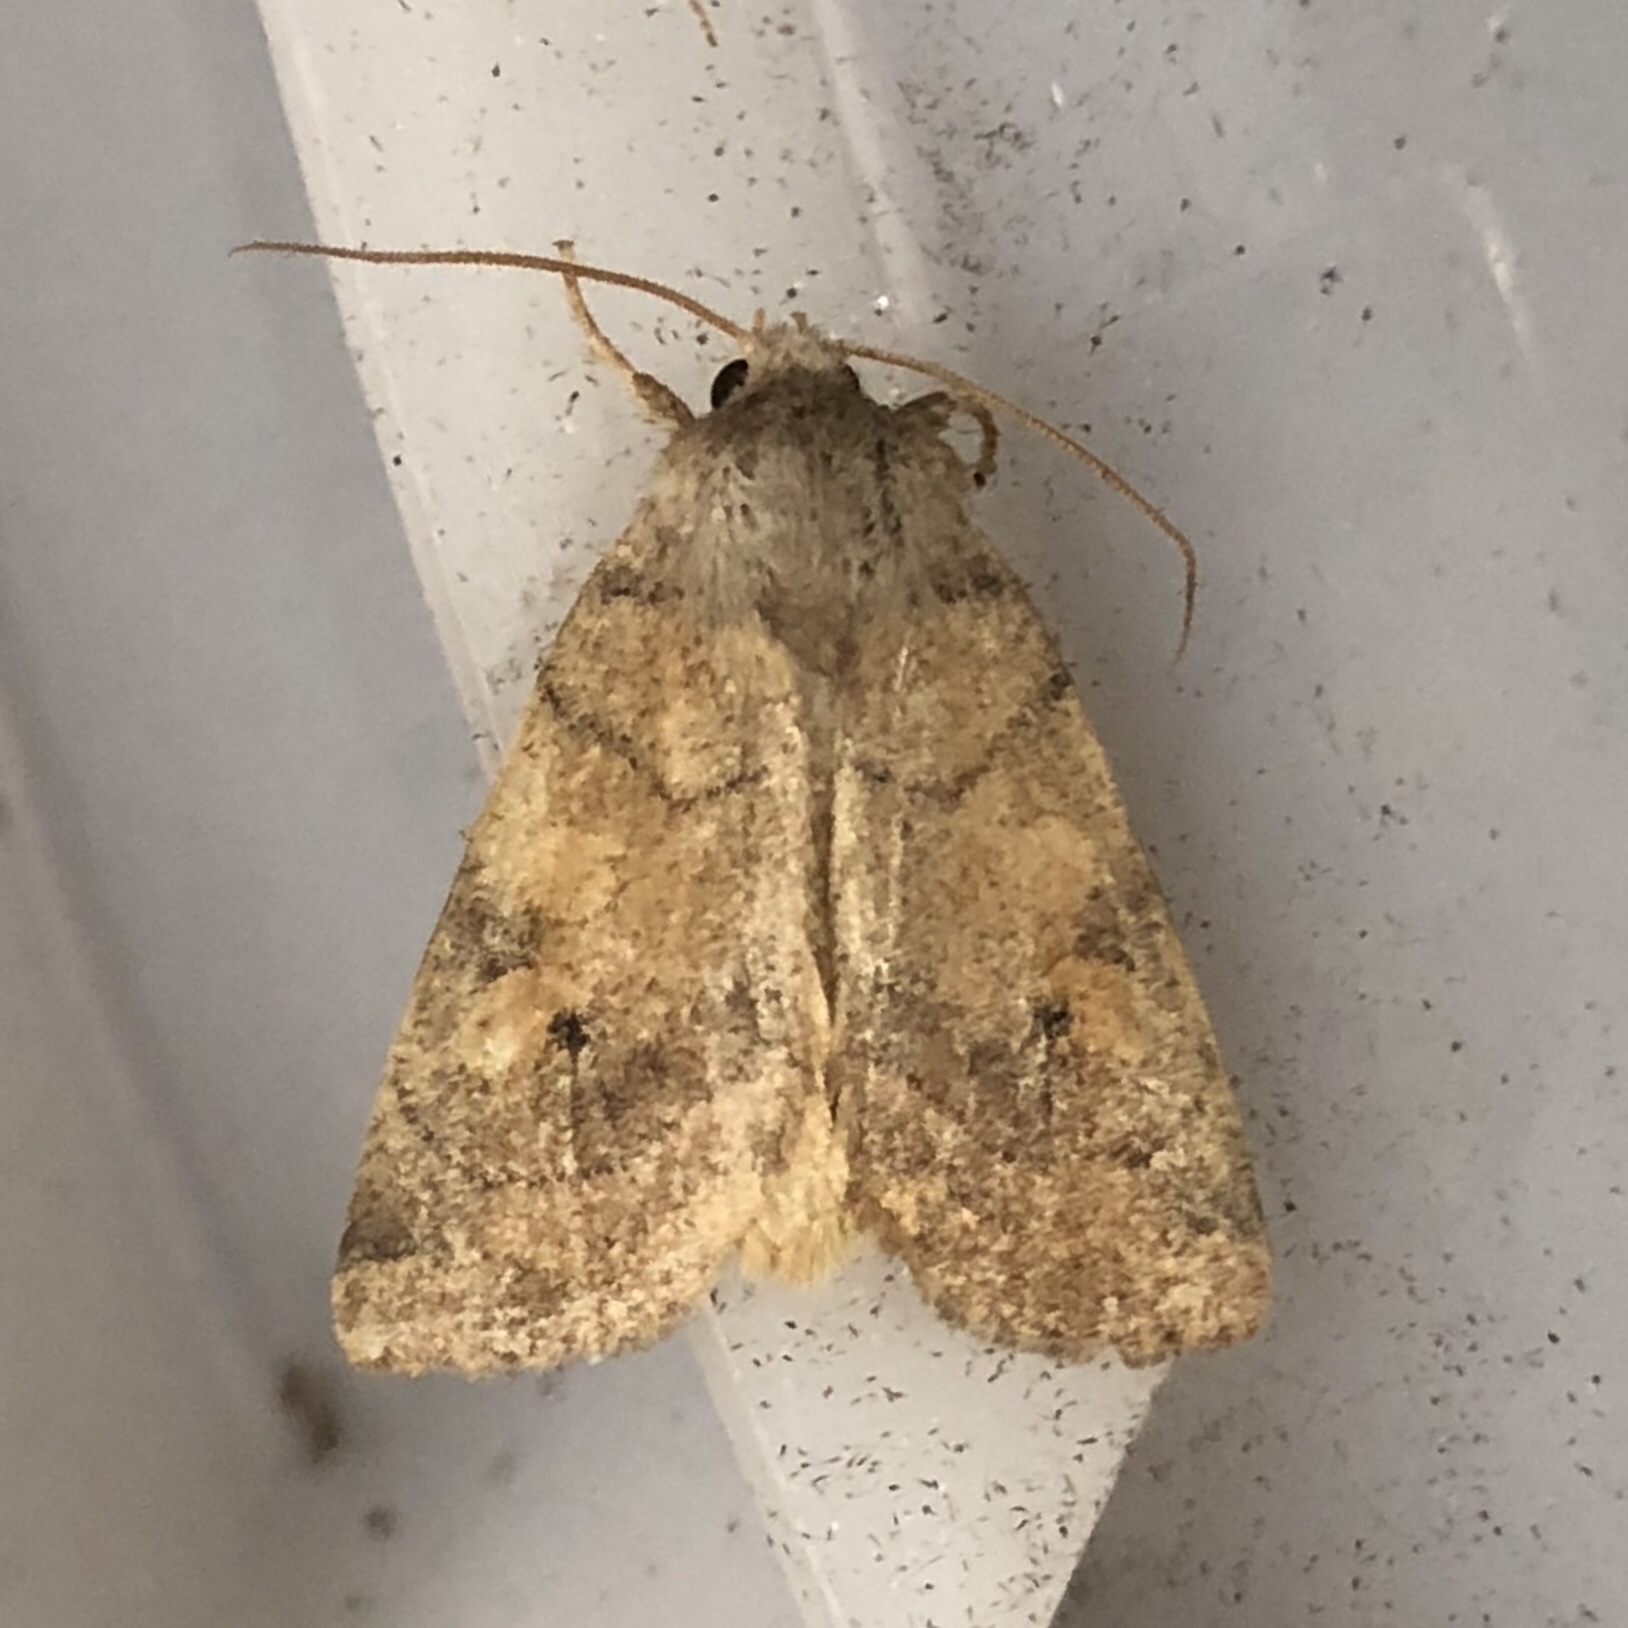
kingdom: Animalia
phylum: Arthropoda
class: Insecta
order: Lepidoptera
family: Noctuidae
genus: Enargia
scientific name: Enargia infumata
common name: Smoked sallow
